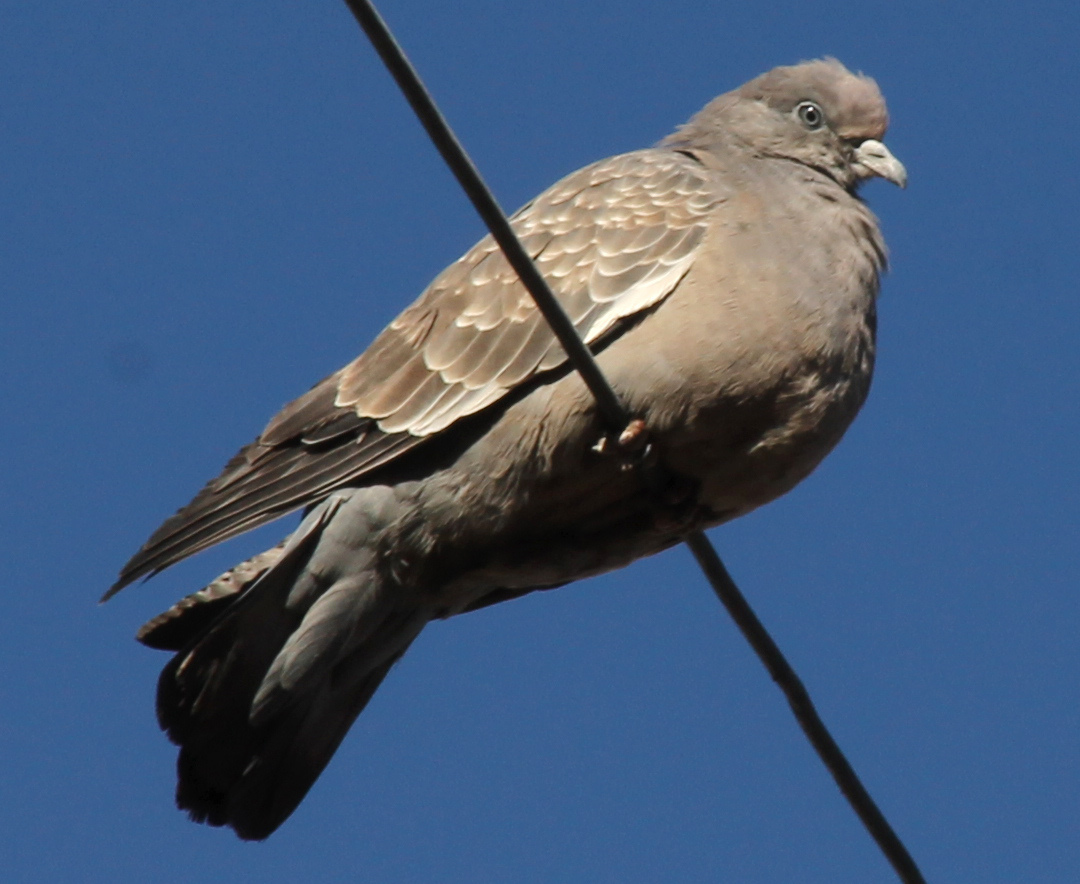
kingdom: Animalia
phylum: Chordata
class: Aves
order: Columbiformes
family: Columbidae
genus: Patagioenas
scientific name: Patagioenas maculosa
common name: Spot-winged pigeon
